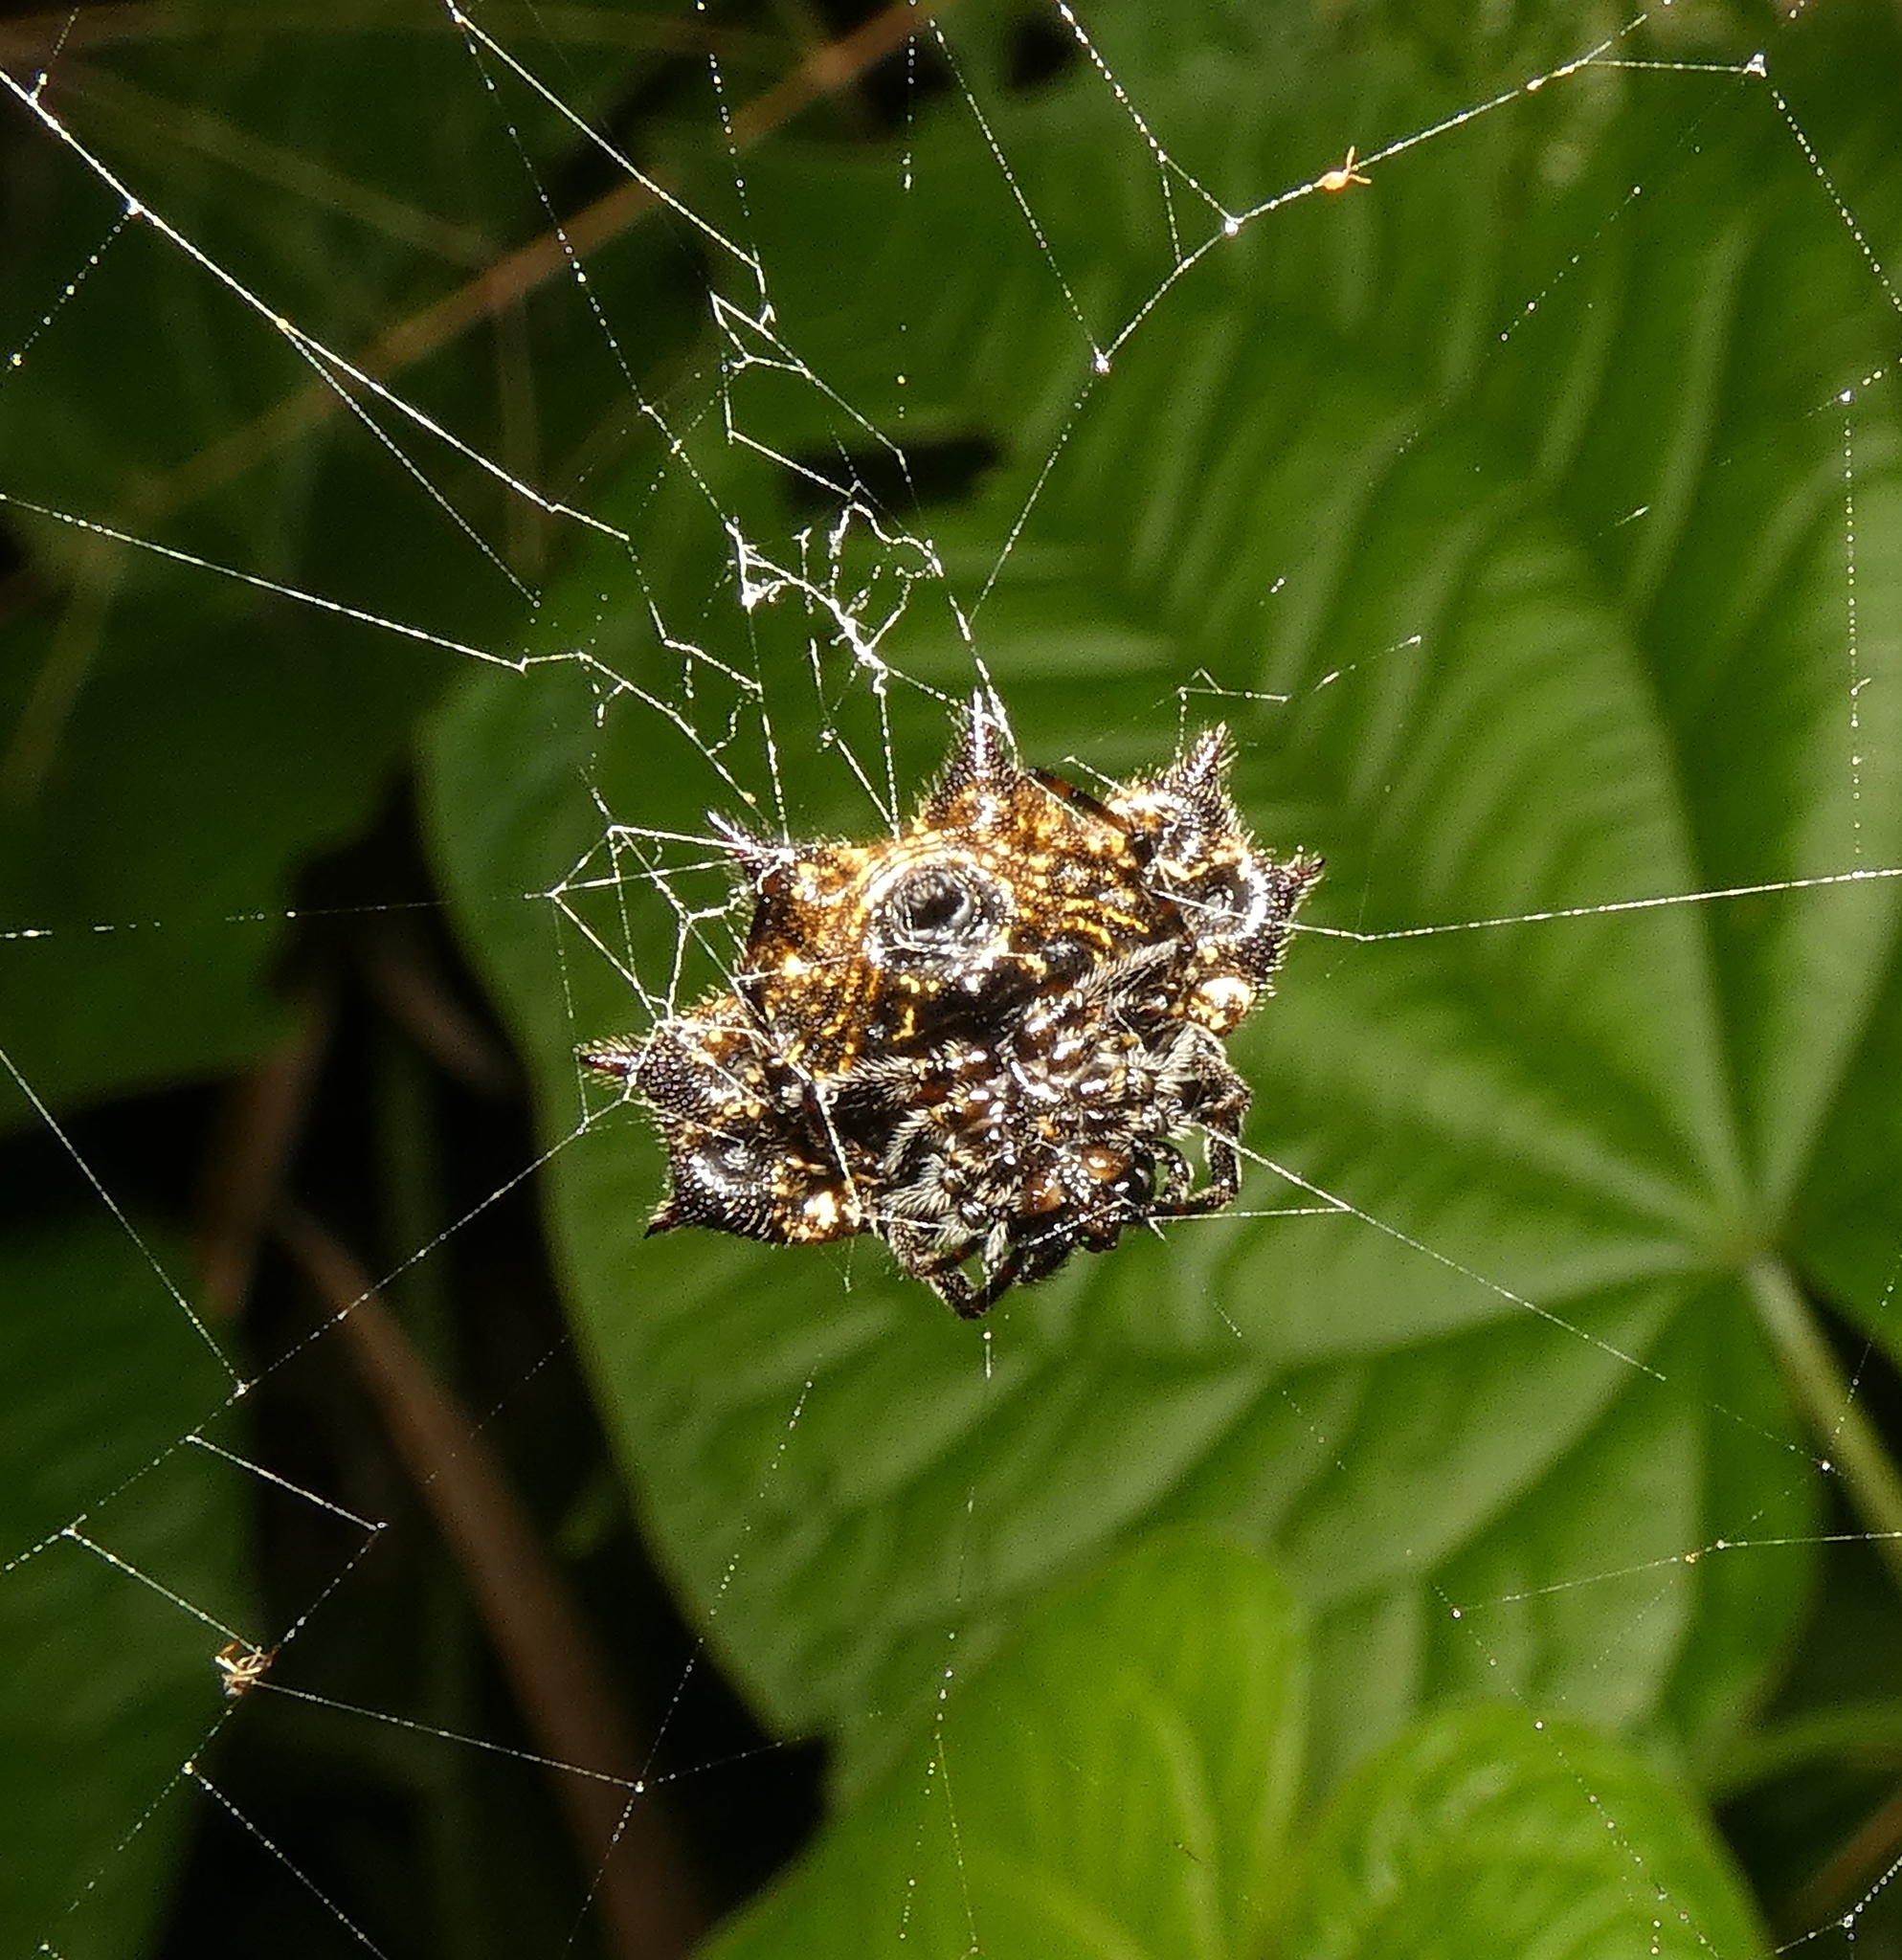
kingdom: Animalia
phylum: Arthropoda
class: Arachnida
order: Araneae
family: Araneidae
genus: Gasteracantha
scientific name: Gasteracantha cancriformis
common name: Orb weavers
